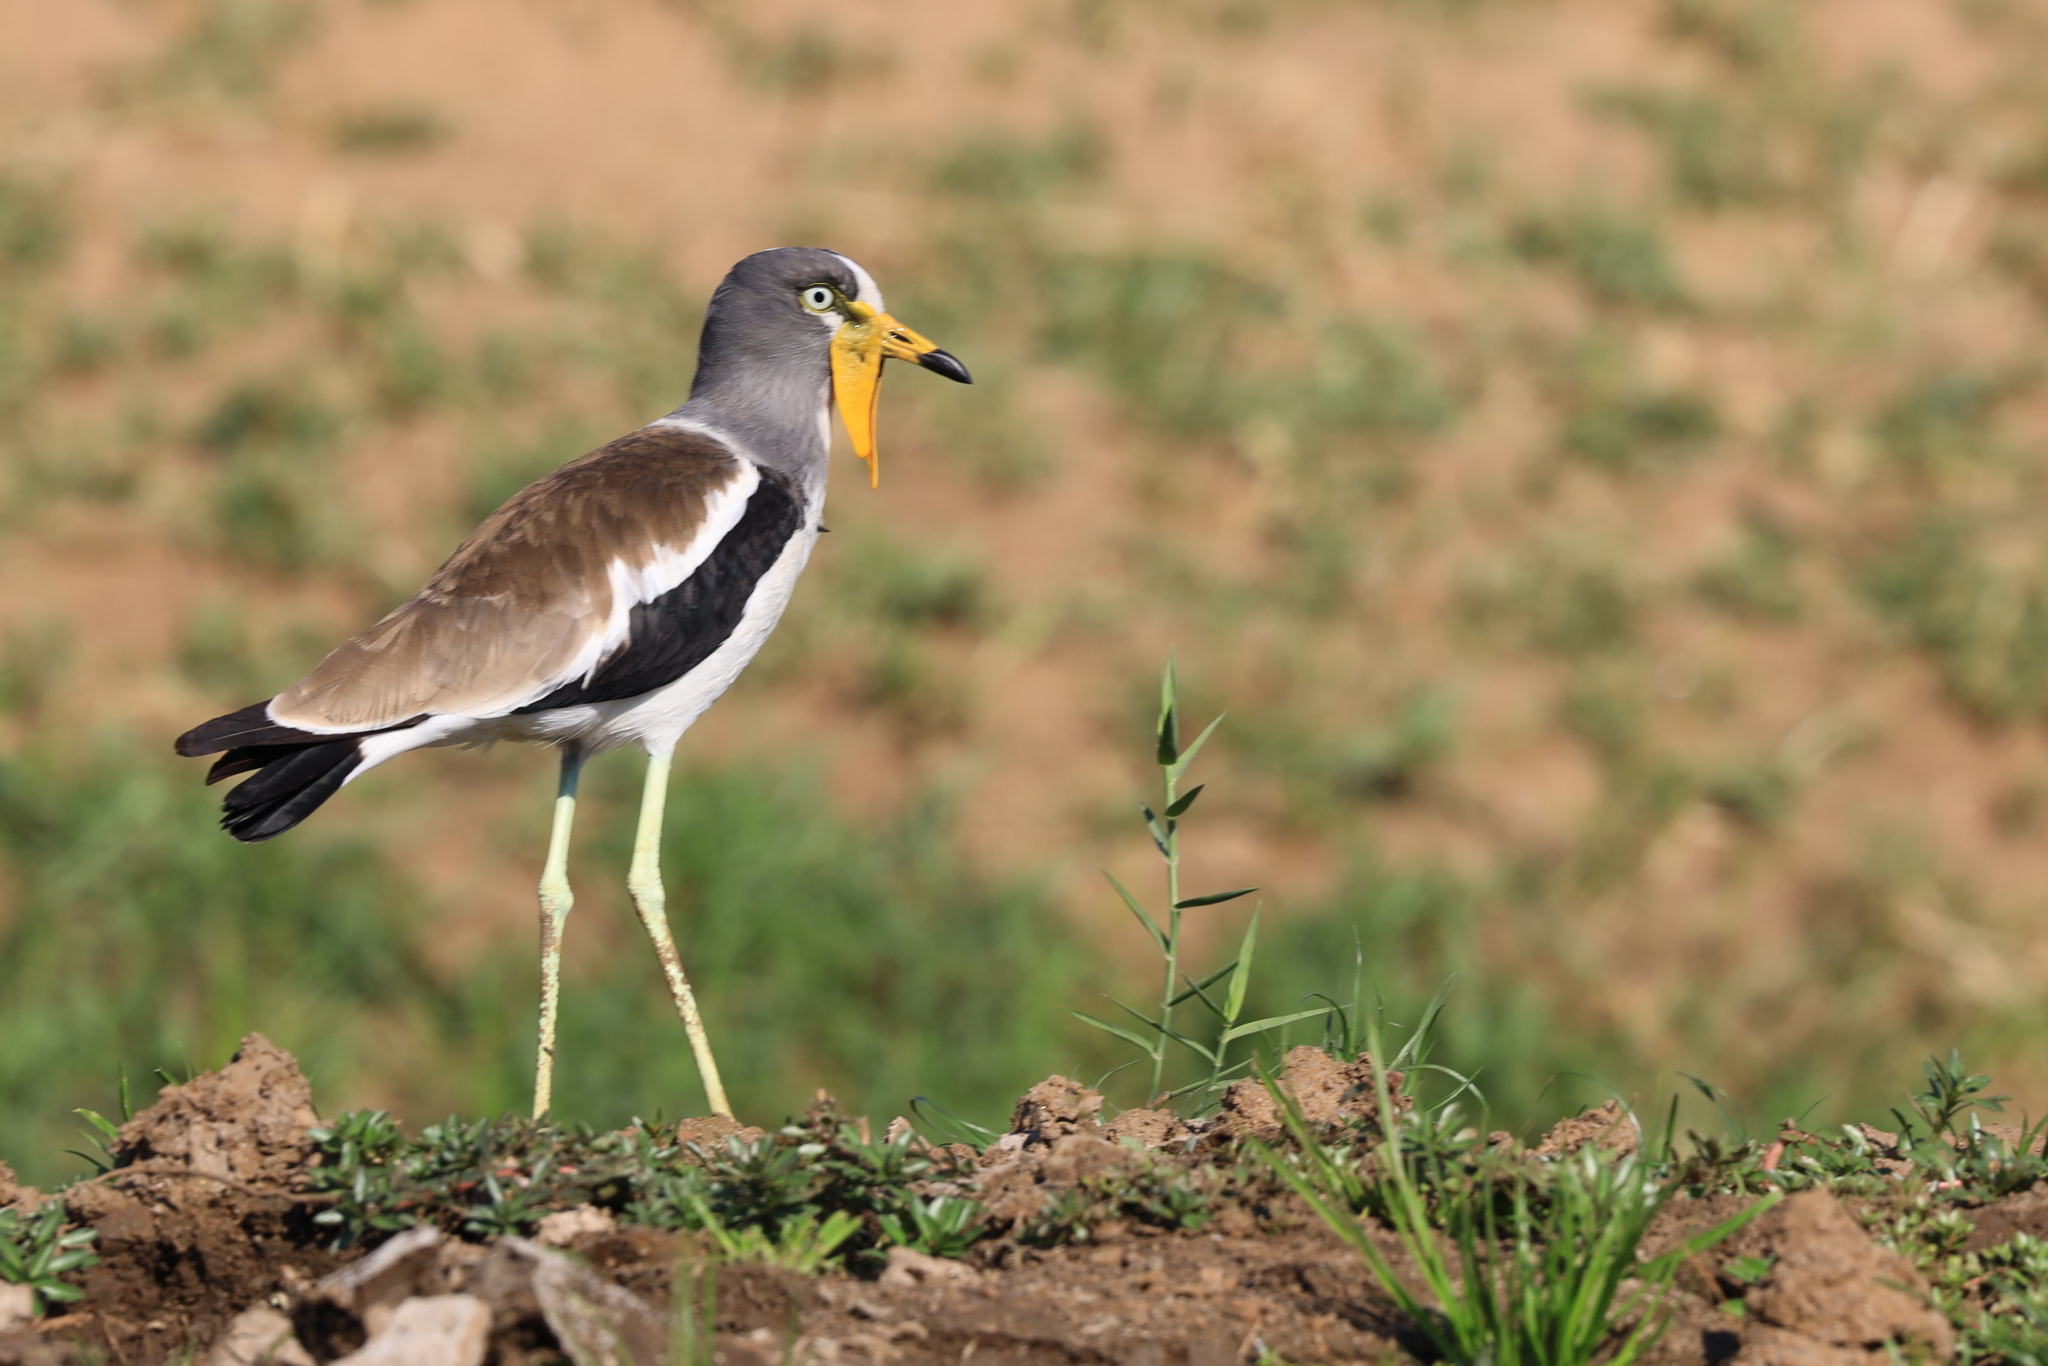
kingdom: Animalia
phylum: Chordata
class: Aves
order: Charadriiformes
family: Charadriidae
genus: Vanellus
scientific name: Vanellus albiceps
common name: White-crowned lapwing
